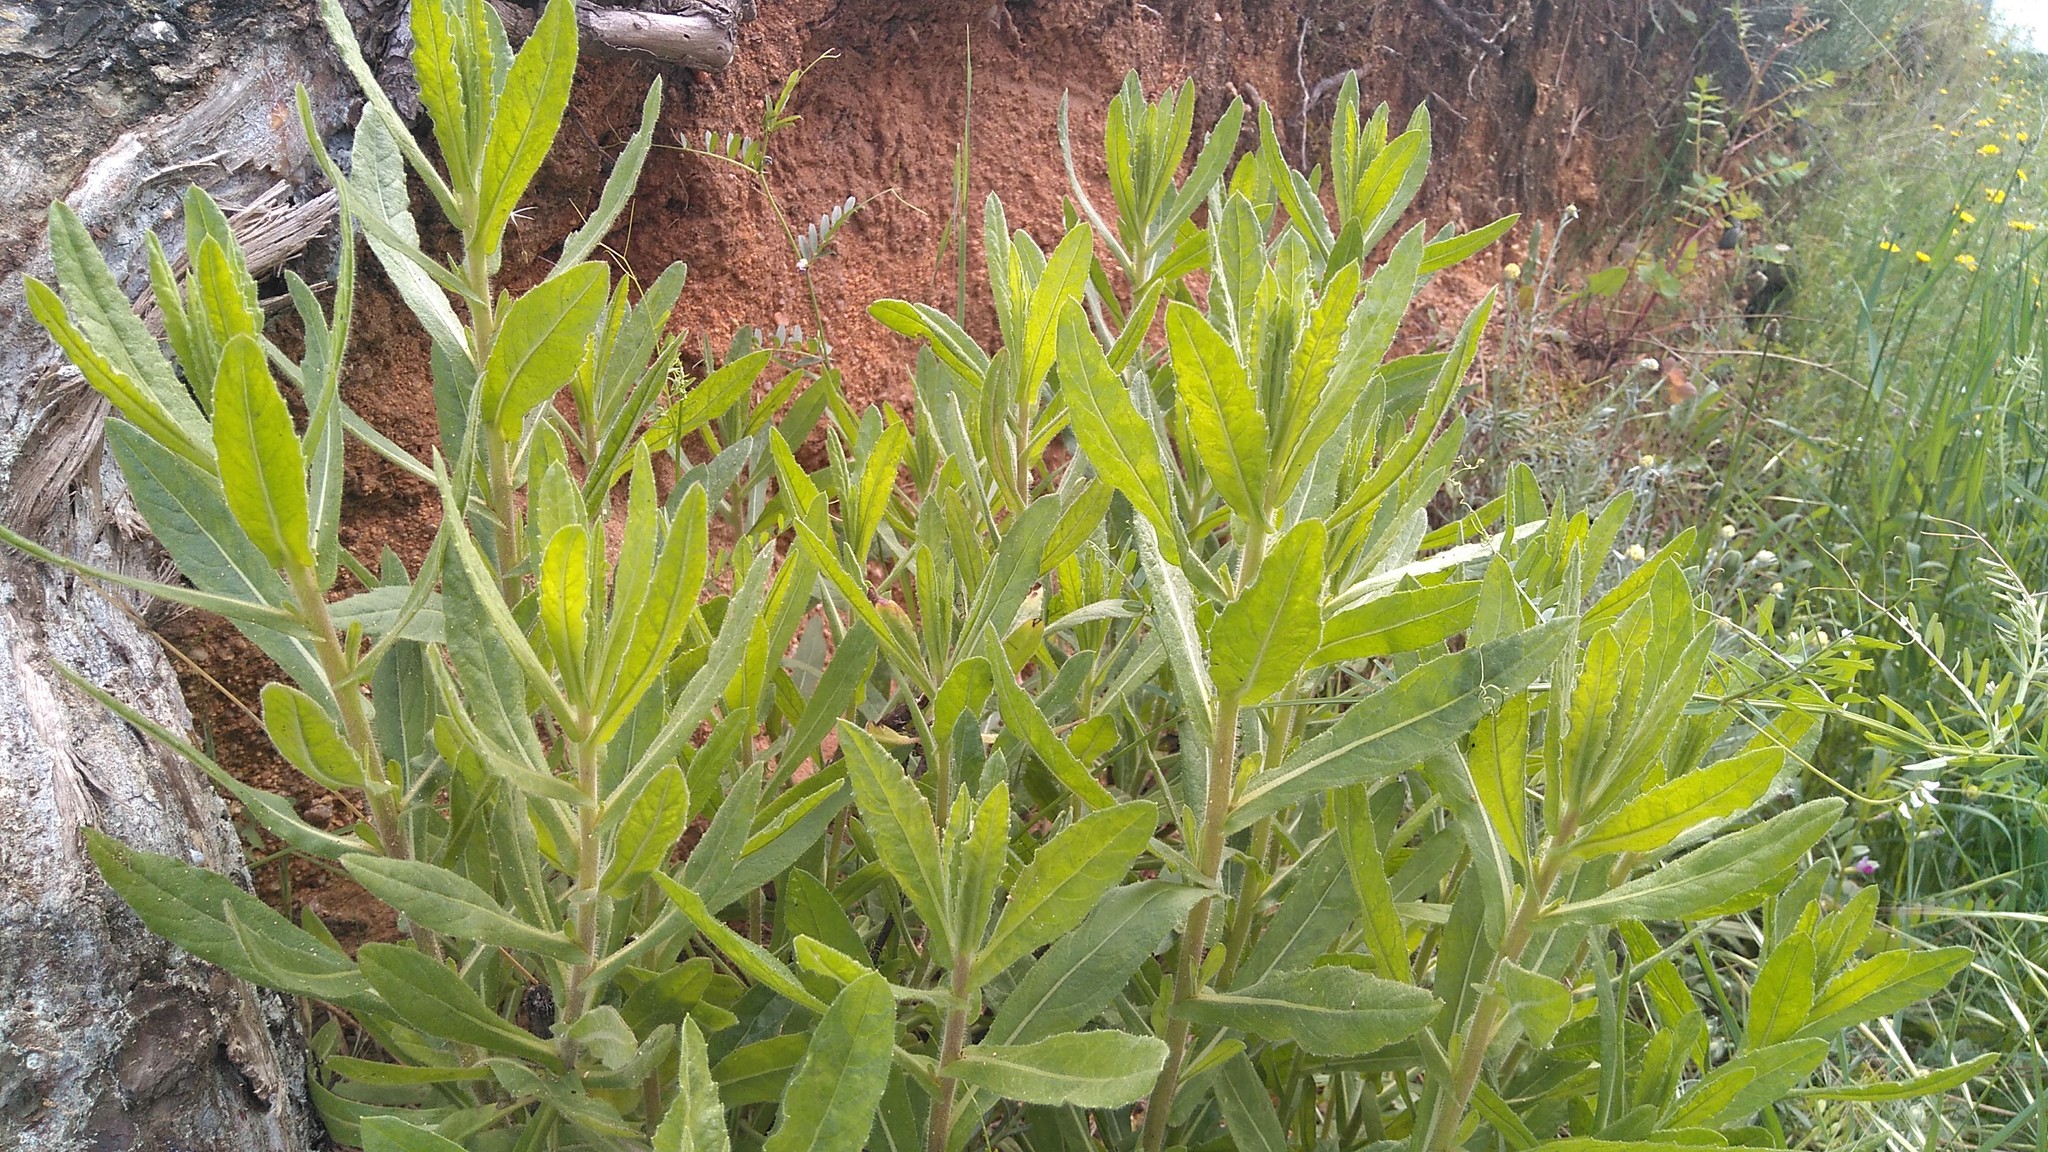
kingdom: Plantae
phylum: Tracheophyta
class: Magnoliopsida
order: Asterales
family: Asteraceae
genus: Dittrichia
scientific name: Dittrichia viscosa
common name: Woody fleabane
